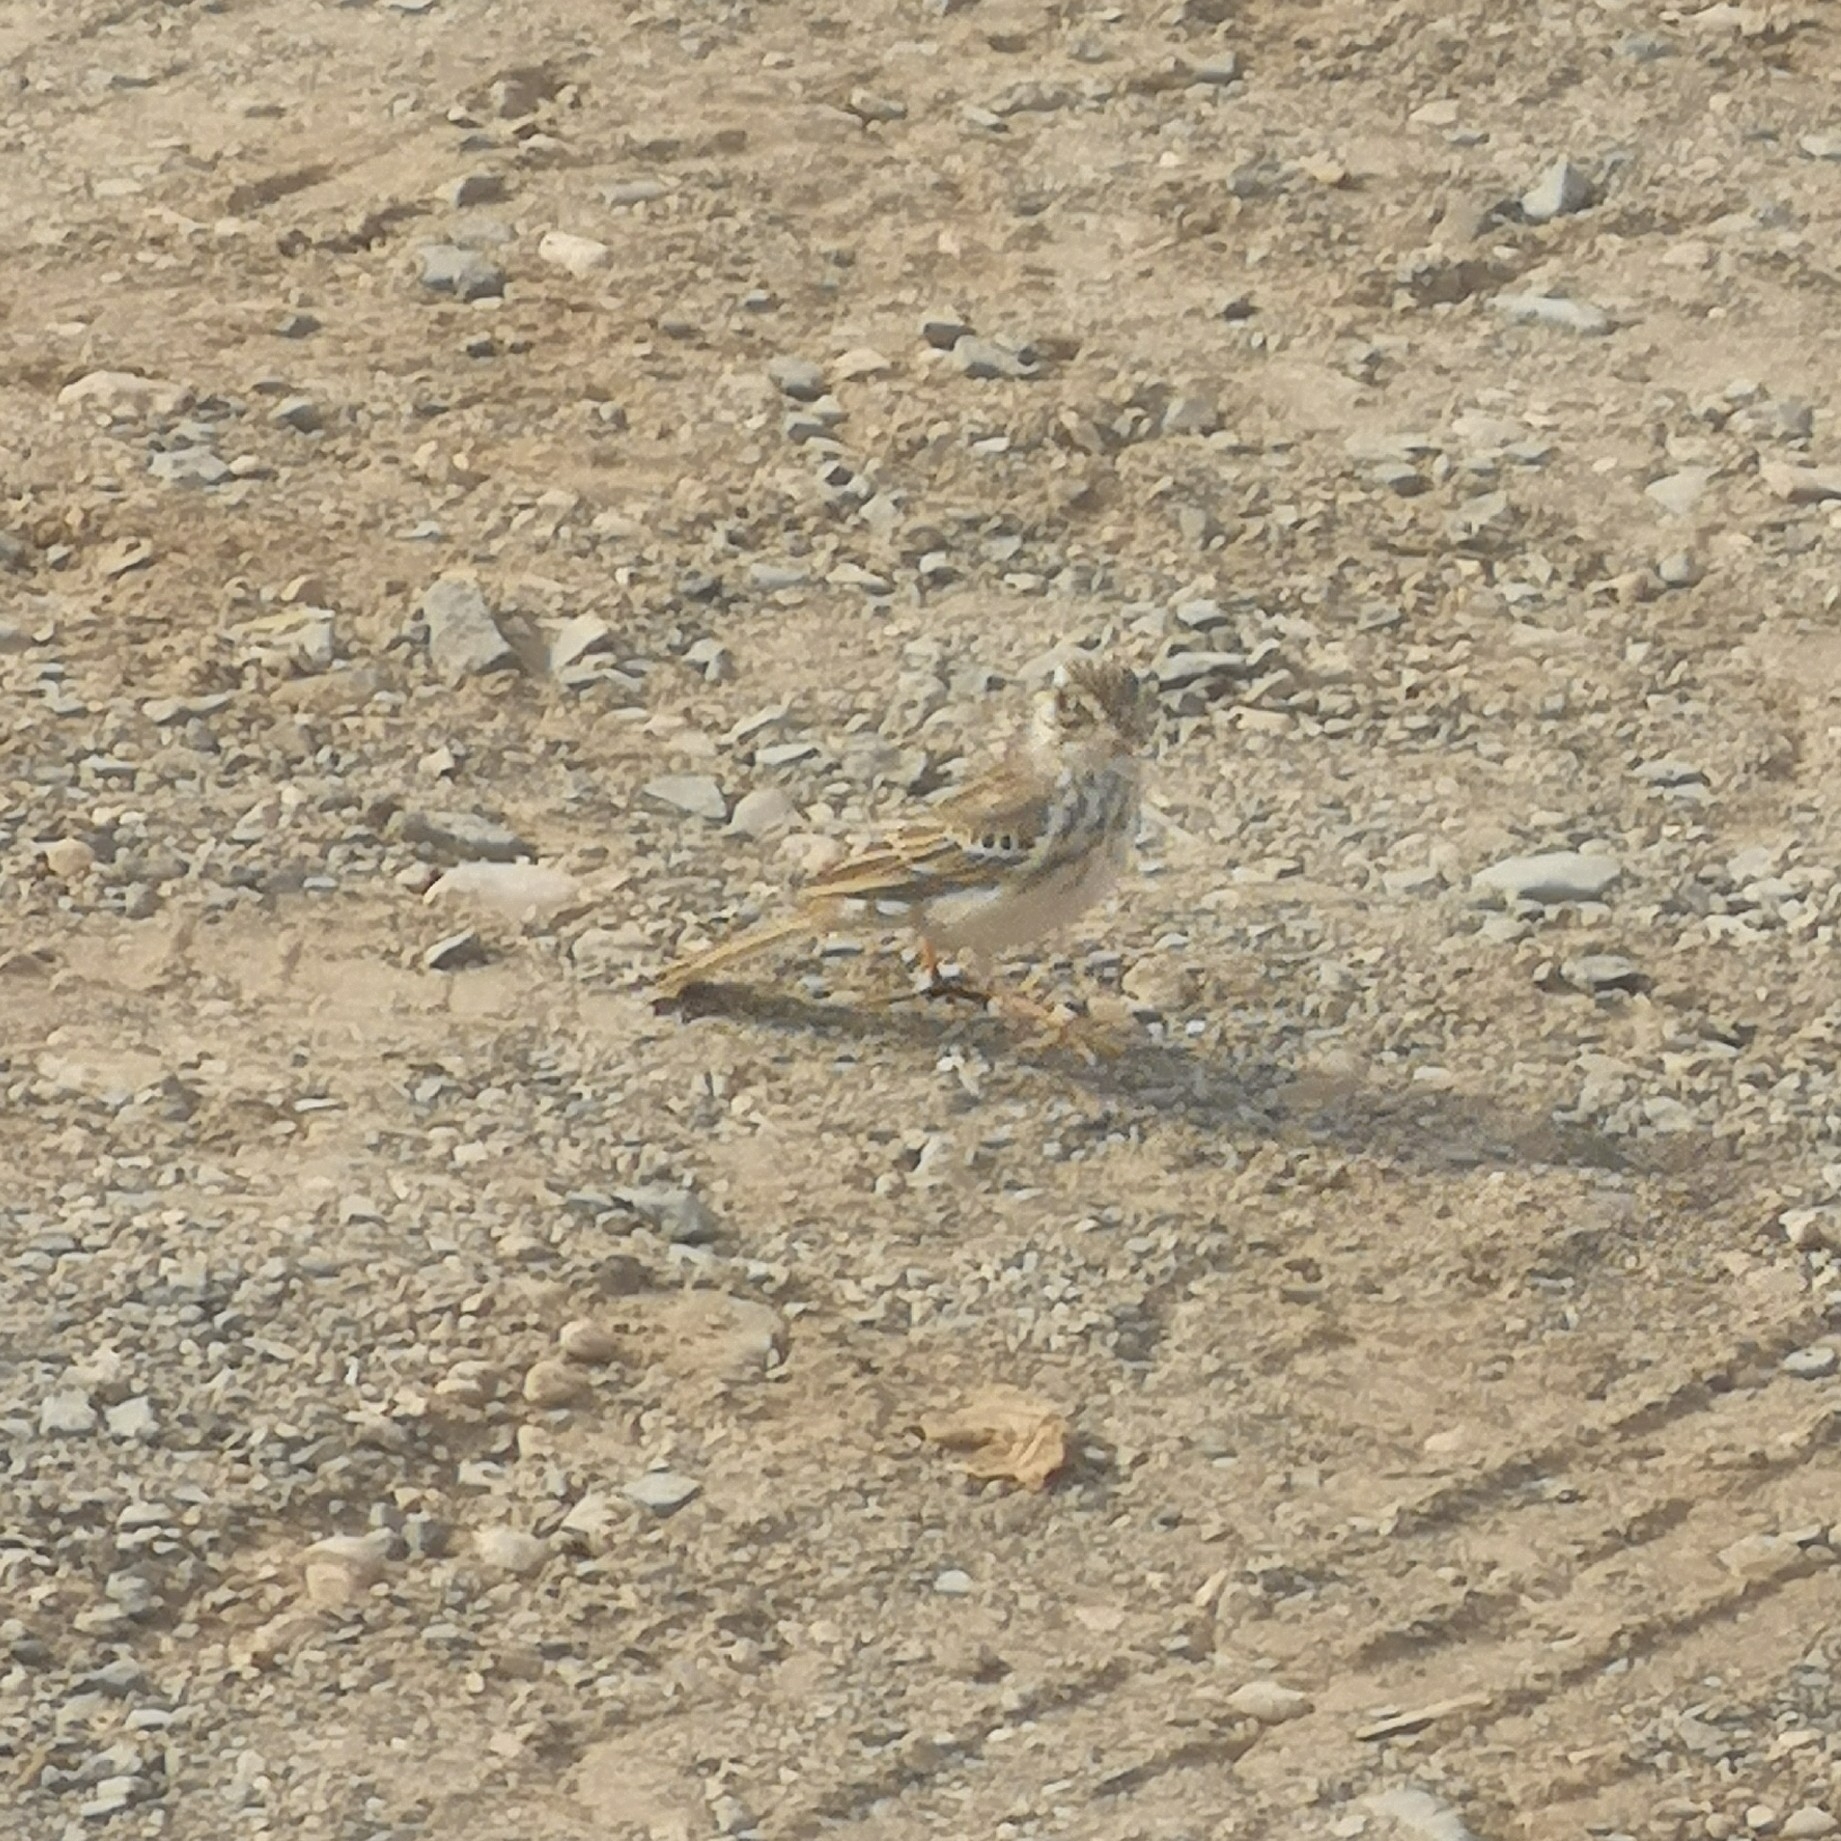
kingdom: Animalia
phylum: Chordata
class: Aves
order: Passeriformes
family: Motacillidae
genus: Anthus
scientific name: Anthus berthelotii
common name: Berthelot's pipit
